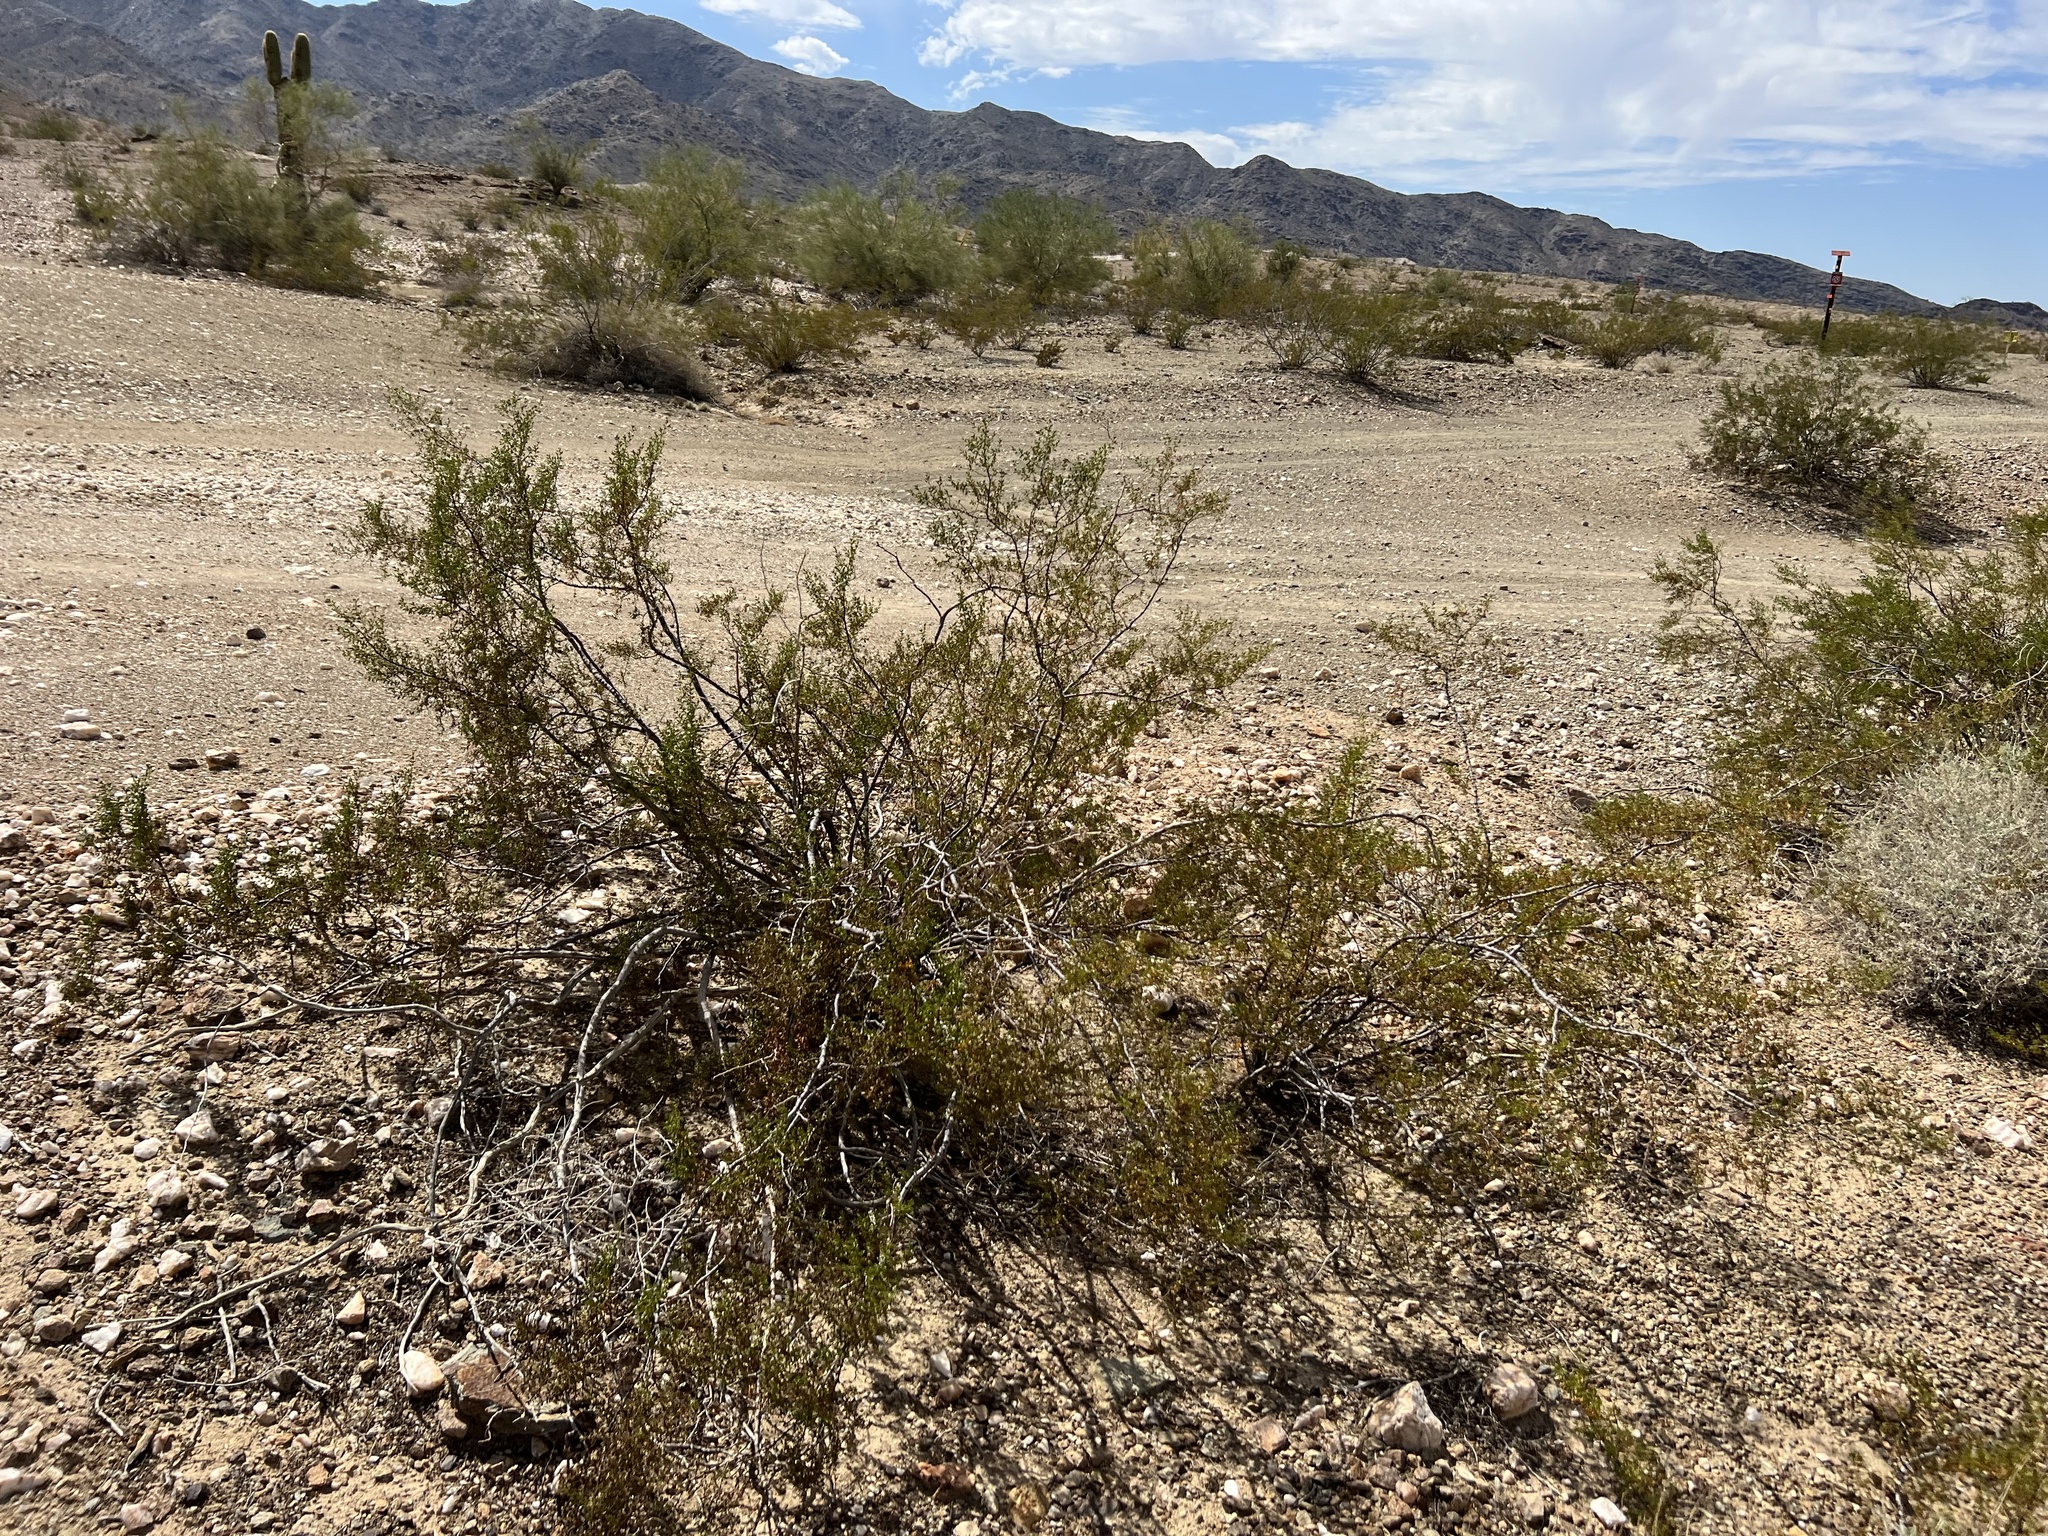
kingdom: Plantae
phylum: Tracheophyta
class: Magnoliopsida
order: Zygophyllales
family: Zygophyllaceae
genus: Larrea
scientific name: Larrea tridentata
